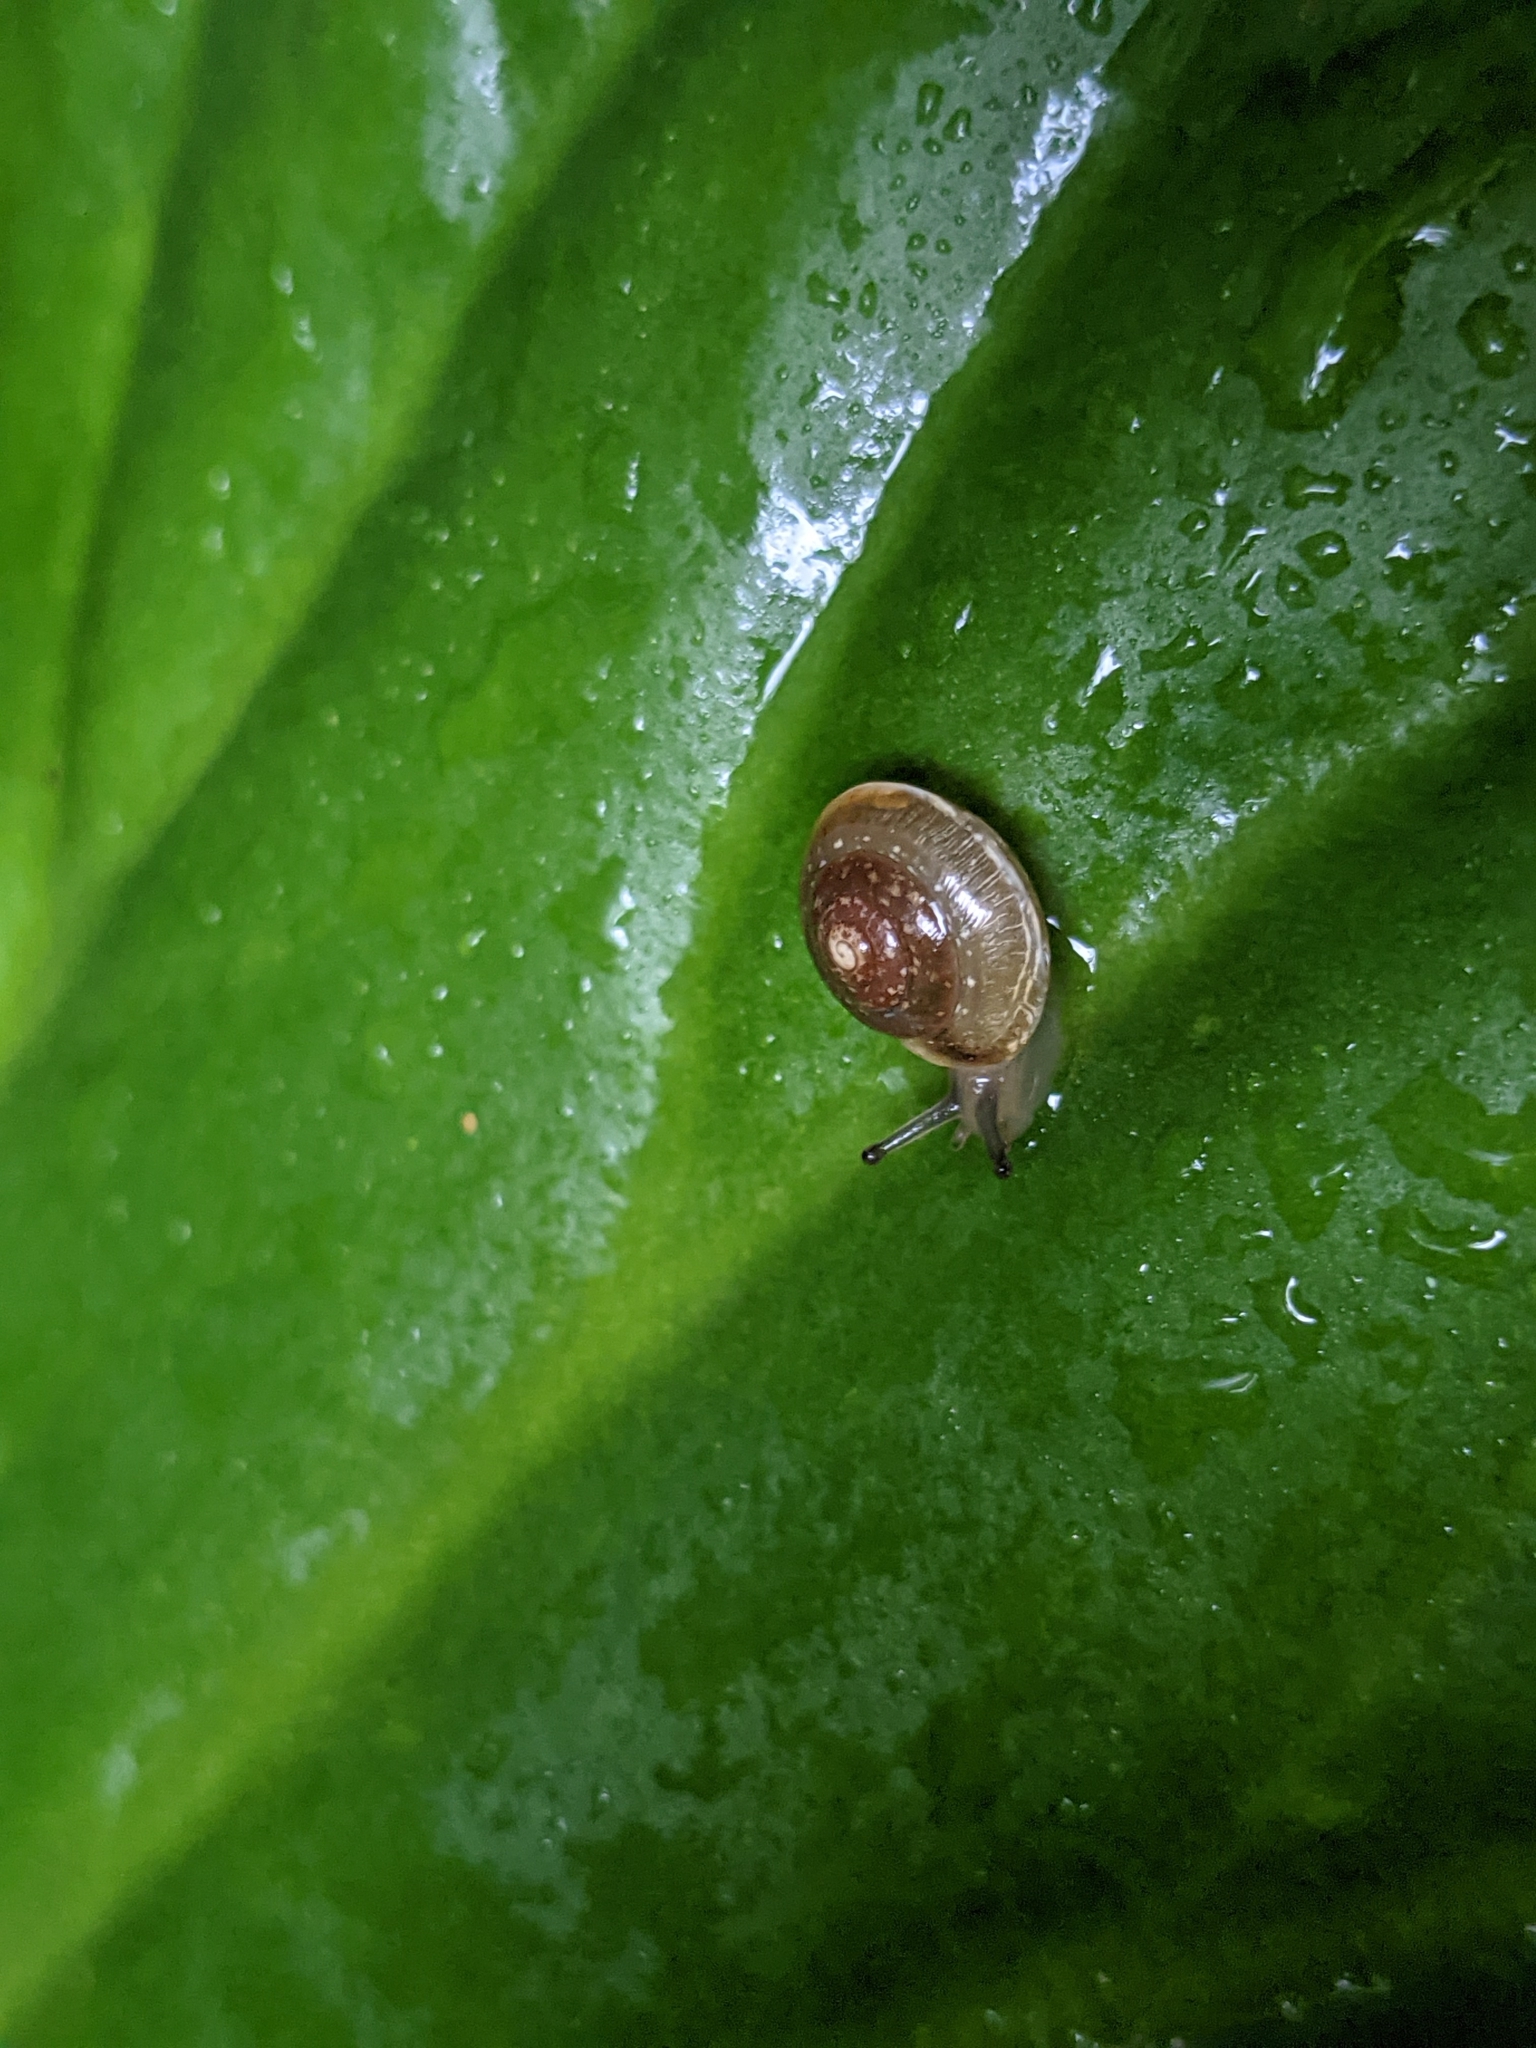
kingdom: Animalia
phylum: Mollusca
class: Gastropoda
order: Stylommatophora
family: Hygromiidae
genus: Hygromia
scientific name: Hygromia cinctella
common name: Girdled snail
